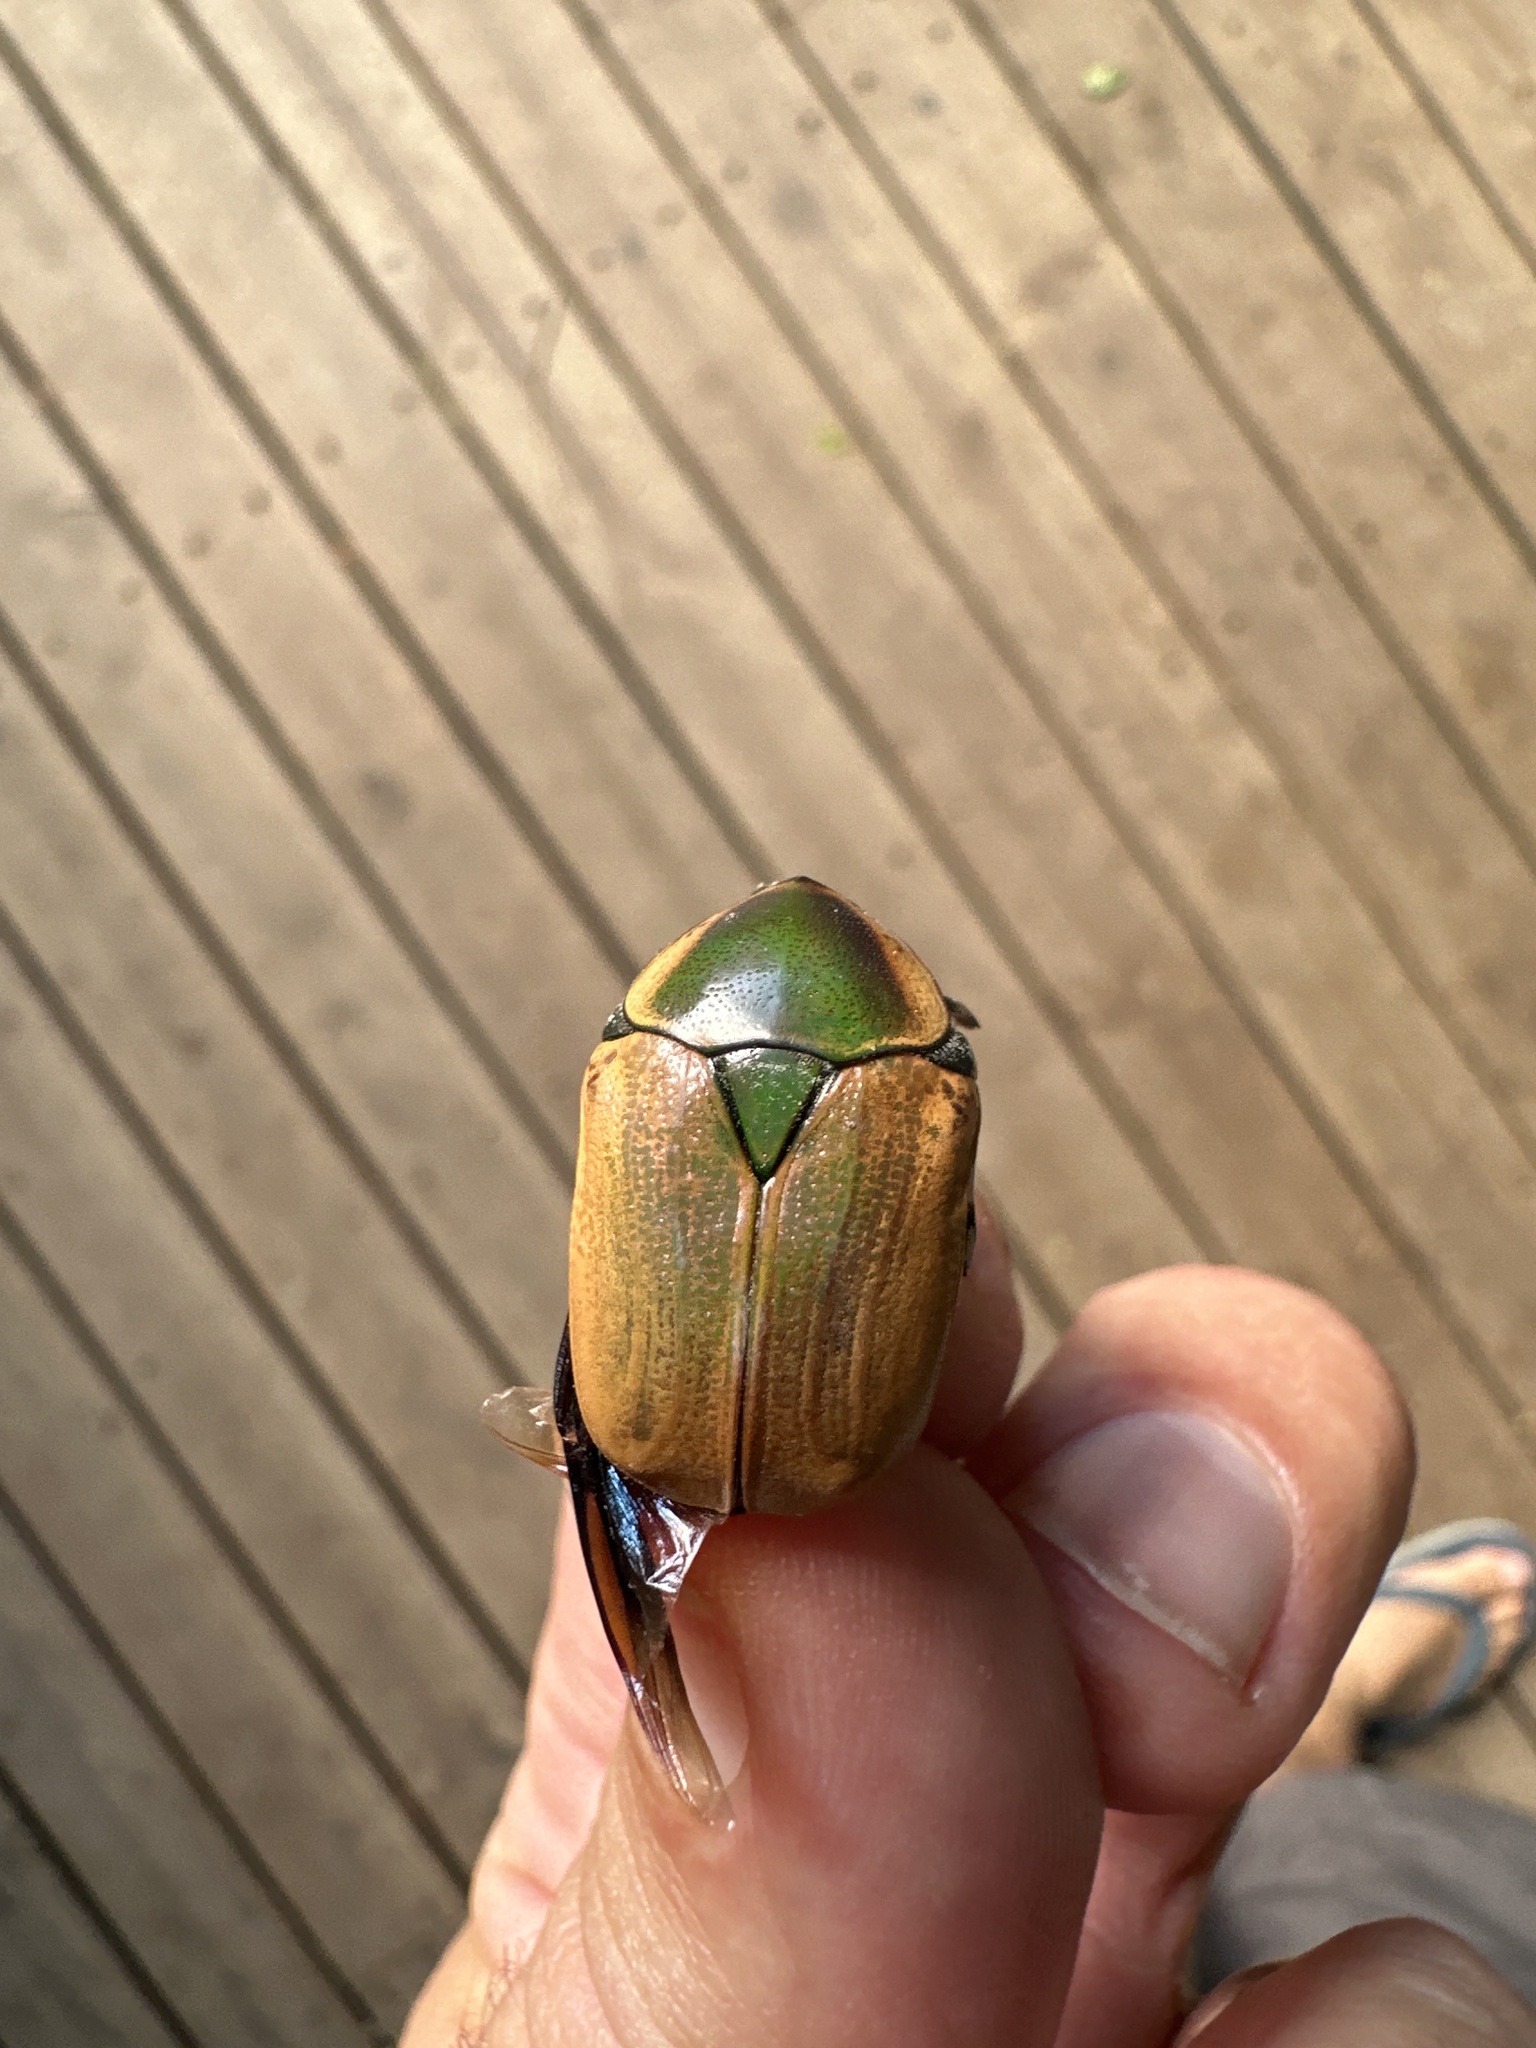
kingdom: Animalia
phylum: Arthropoda
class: Insecta
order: Coleoptera
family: Scarabaeidae
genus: Dischista
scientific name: Dischista rufa
